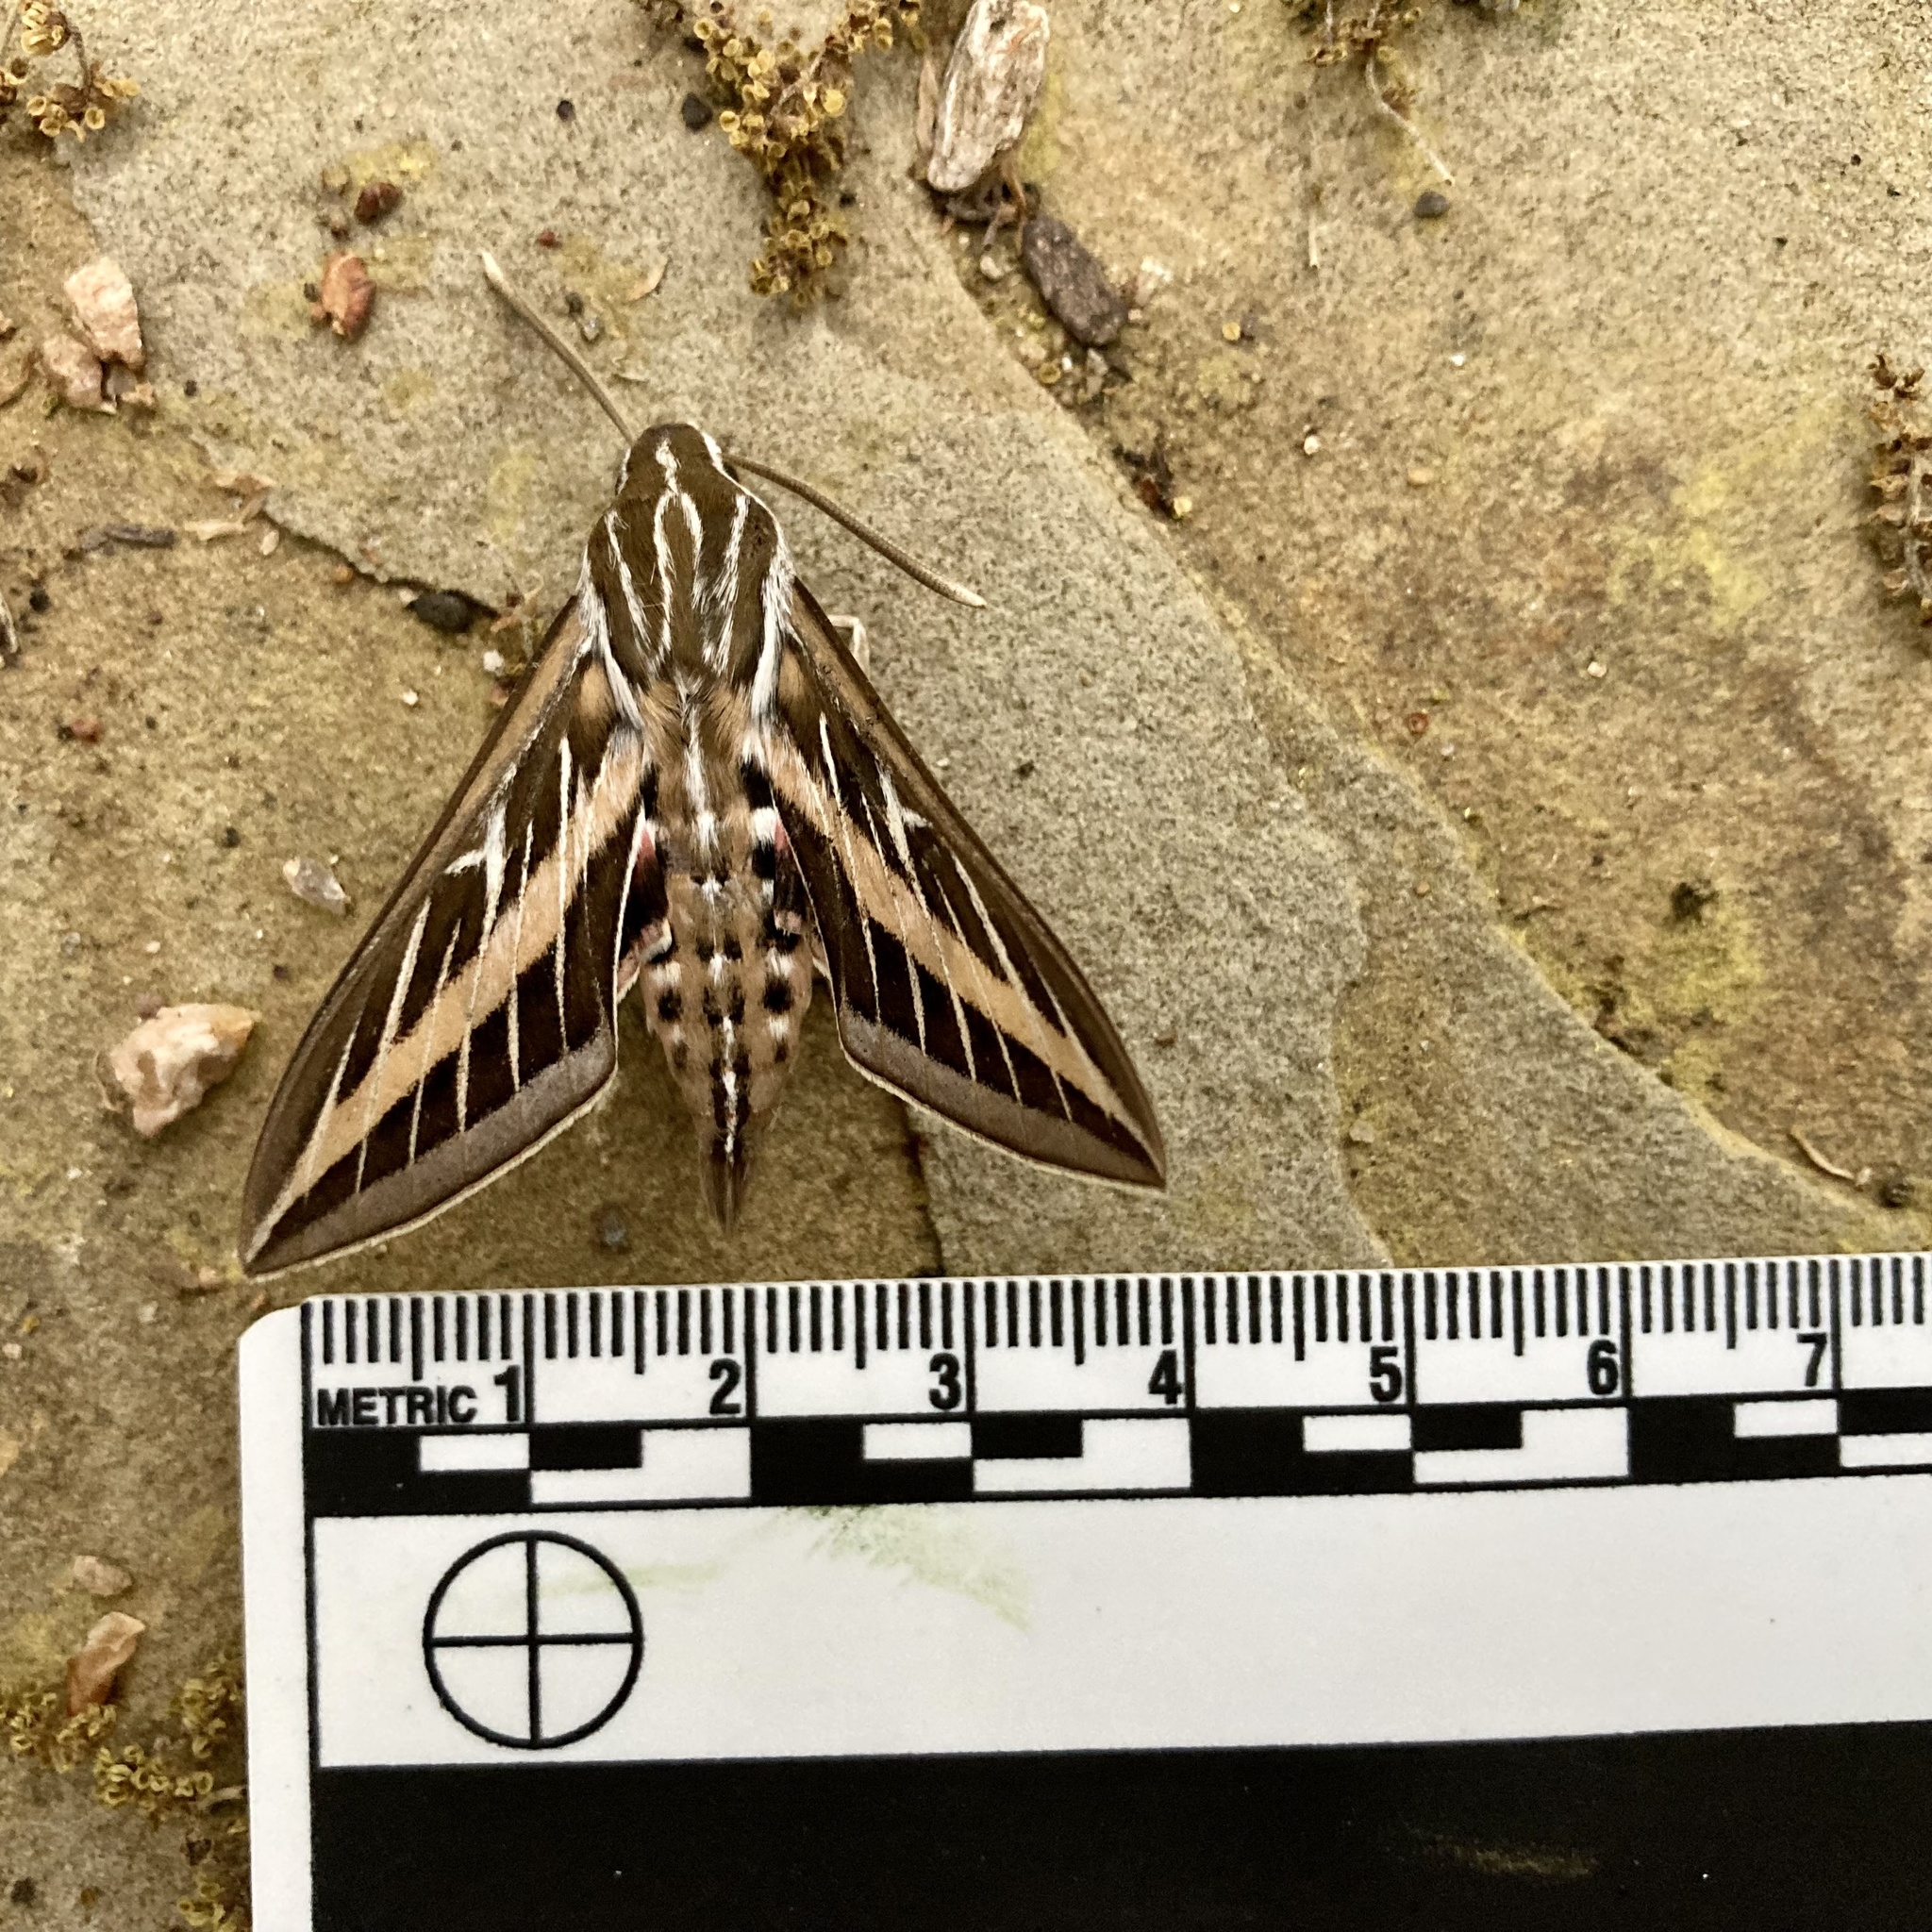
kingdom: Animalia
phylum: Arthropoda
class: Insecta
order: Lepidoptera
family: Sphingidae
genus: Hyles
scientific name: Hyles lineata
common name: White-lined sphinx
